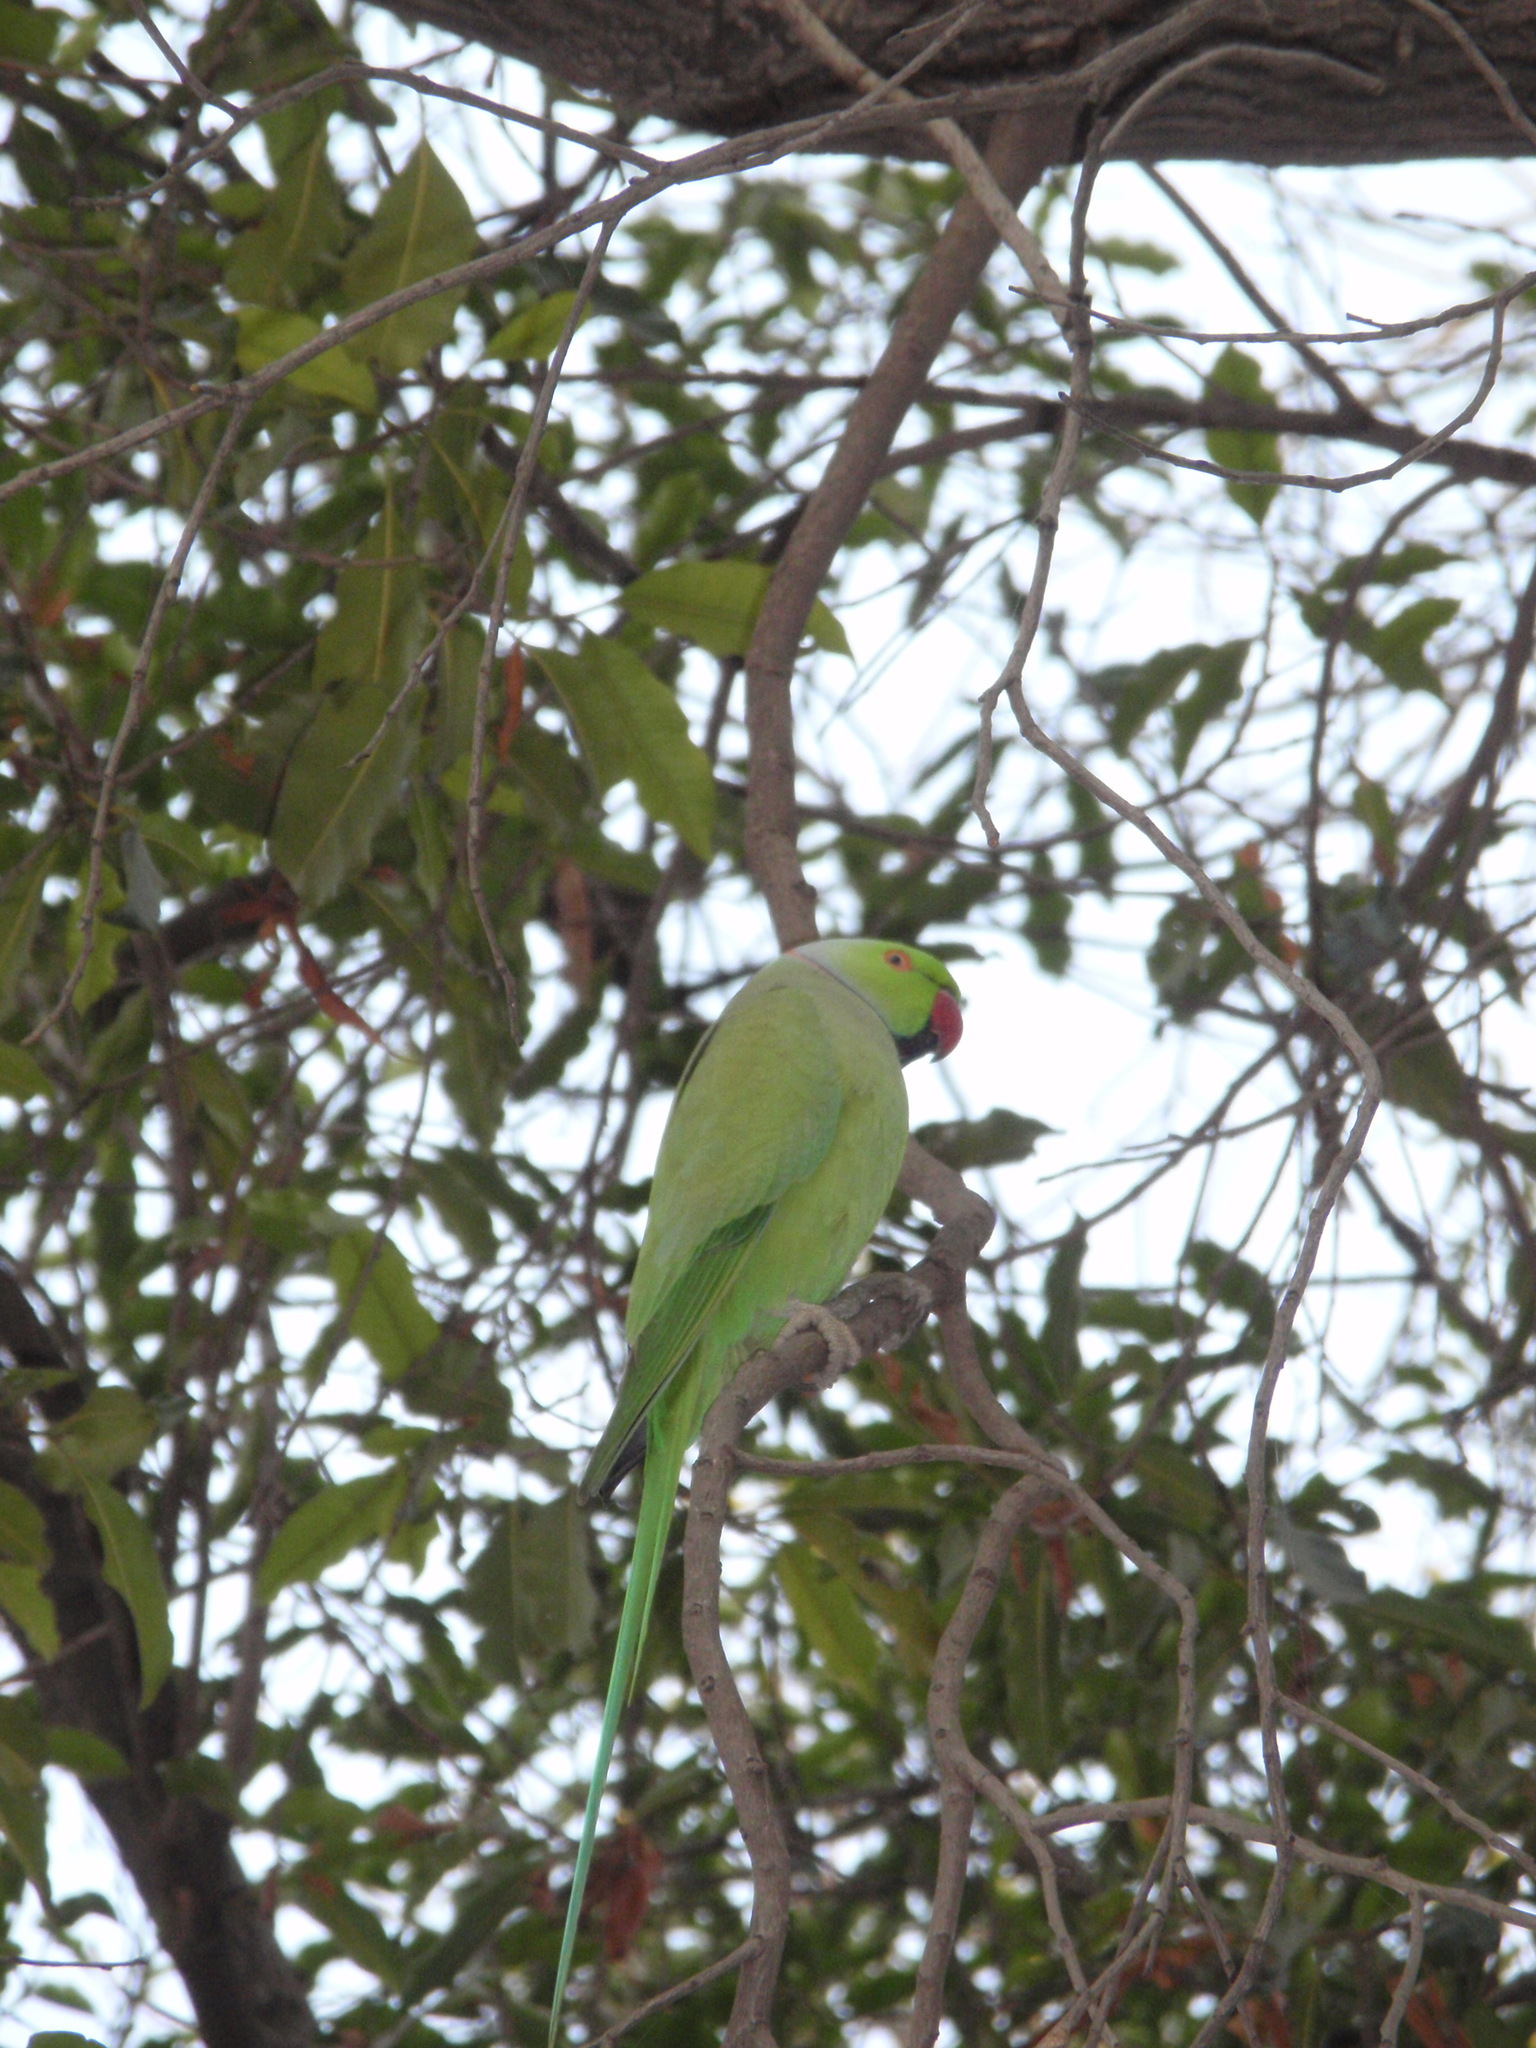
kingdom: Animalia
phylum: Chordata
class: Aves
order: Psittaciformes
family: Psittacidae
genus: Psittacula
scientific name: Psittacula krameri
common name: Rose-ringed parakeet
